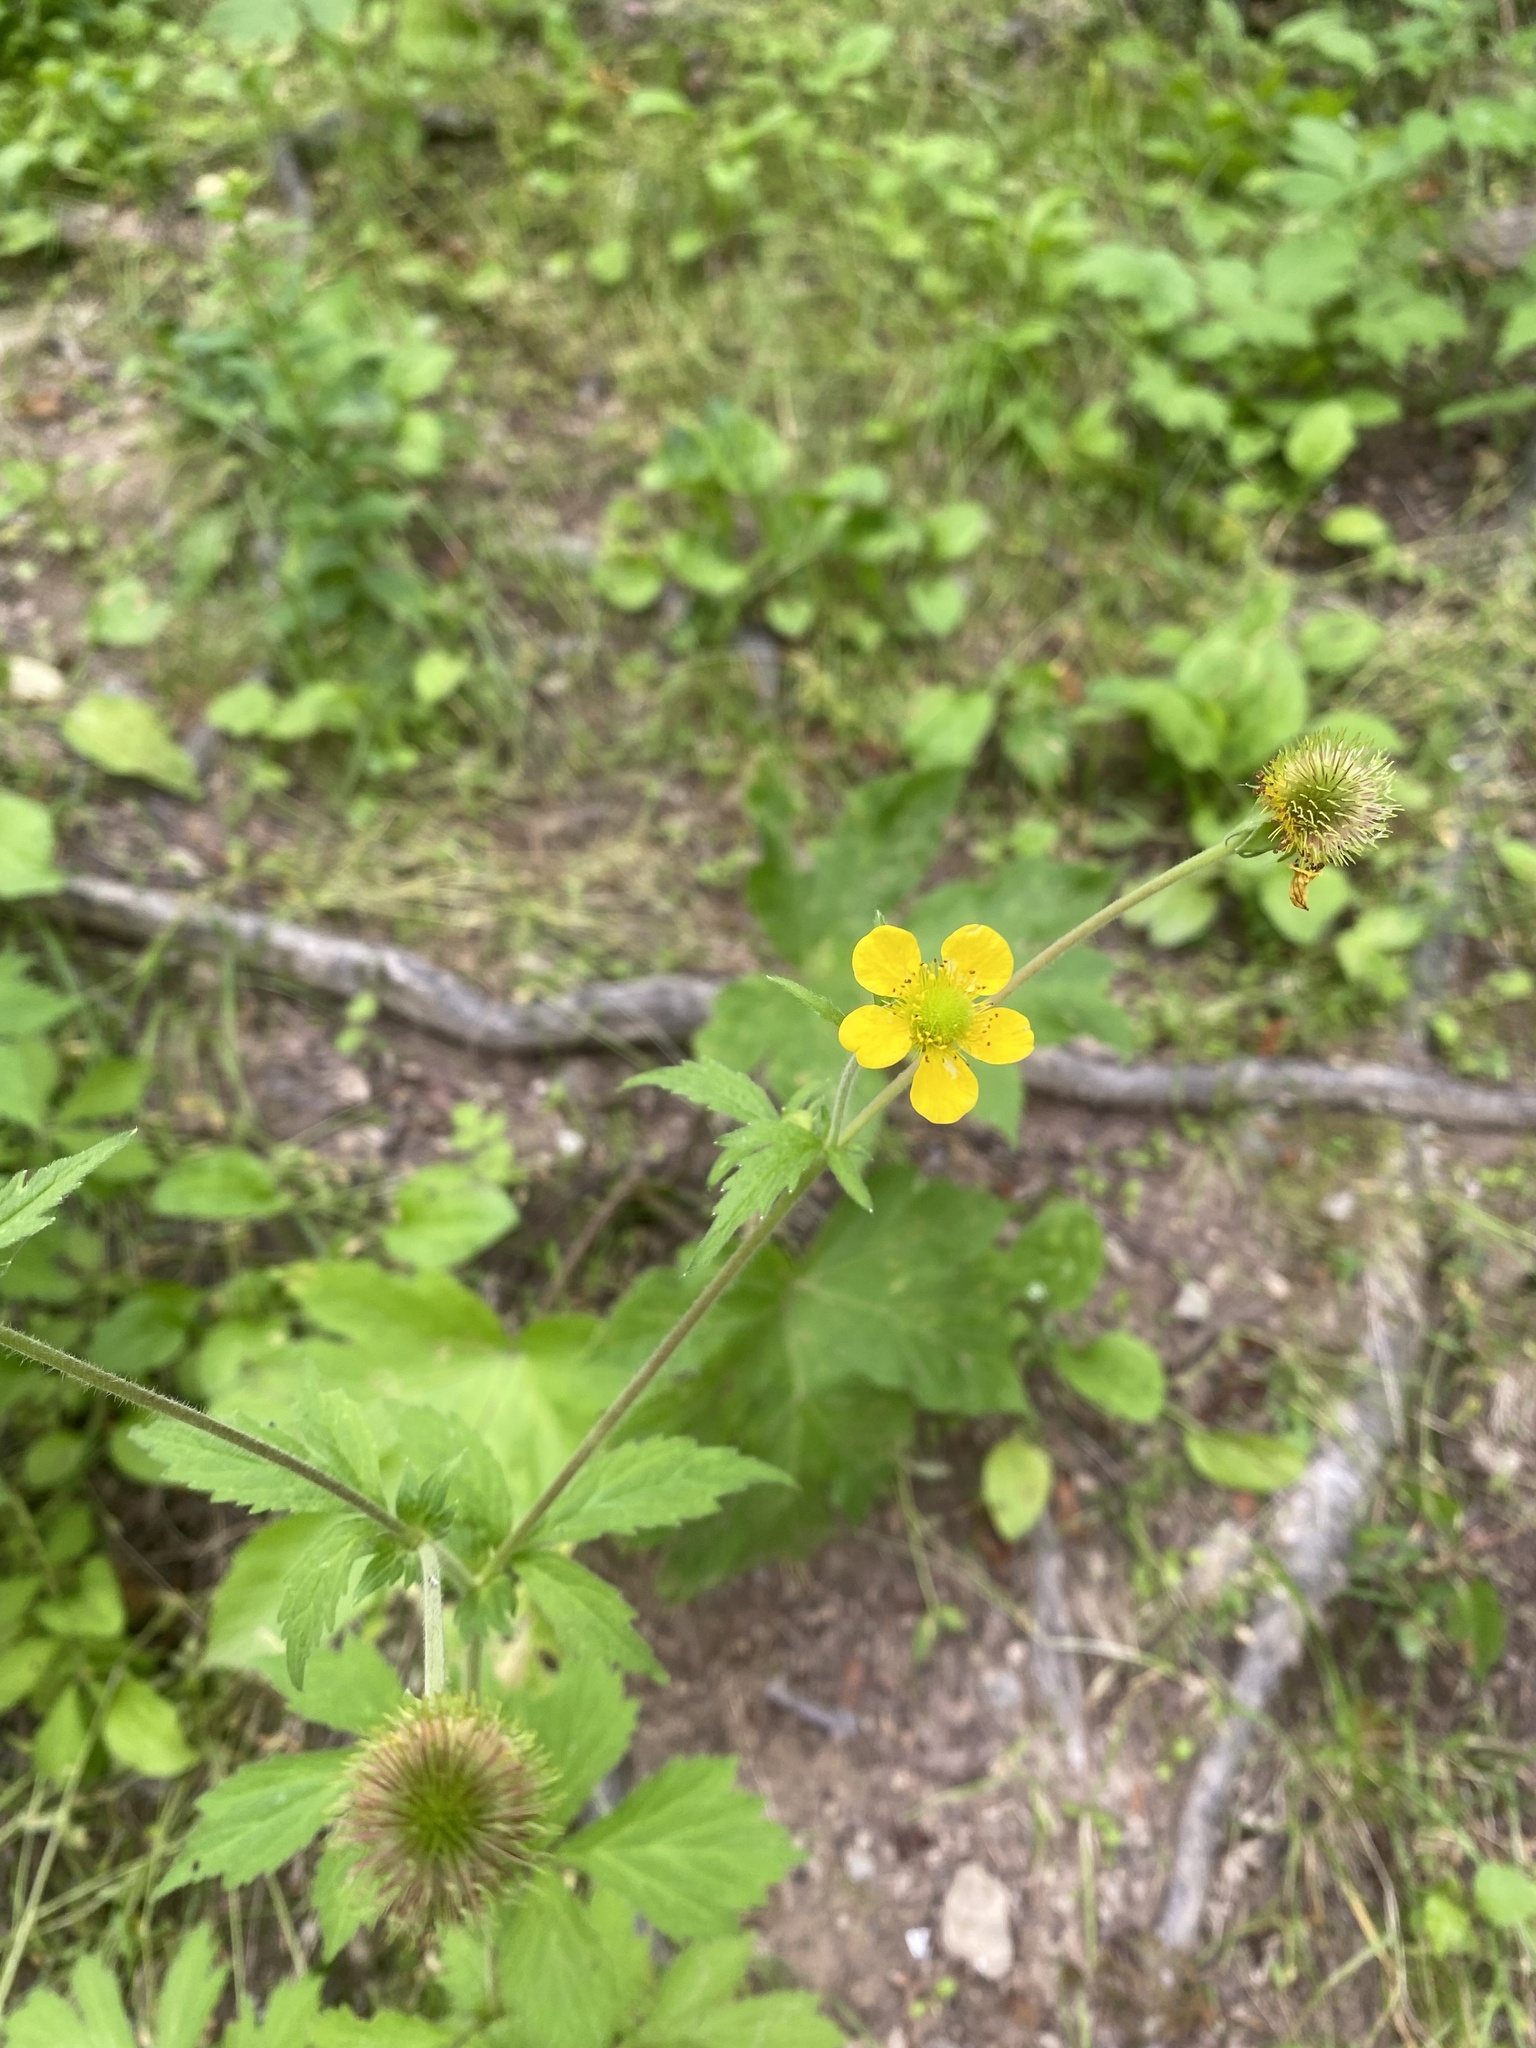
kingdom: Plantae
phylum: Tracheophyta
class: Magnoliopsida
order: Rosales
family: Rosaceae
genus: Geum
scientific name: Geum aleppicum
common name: Yellow avens
